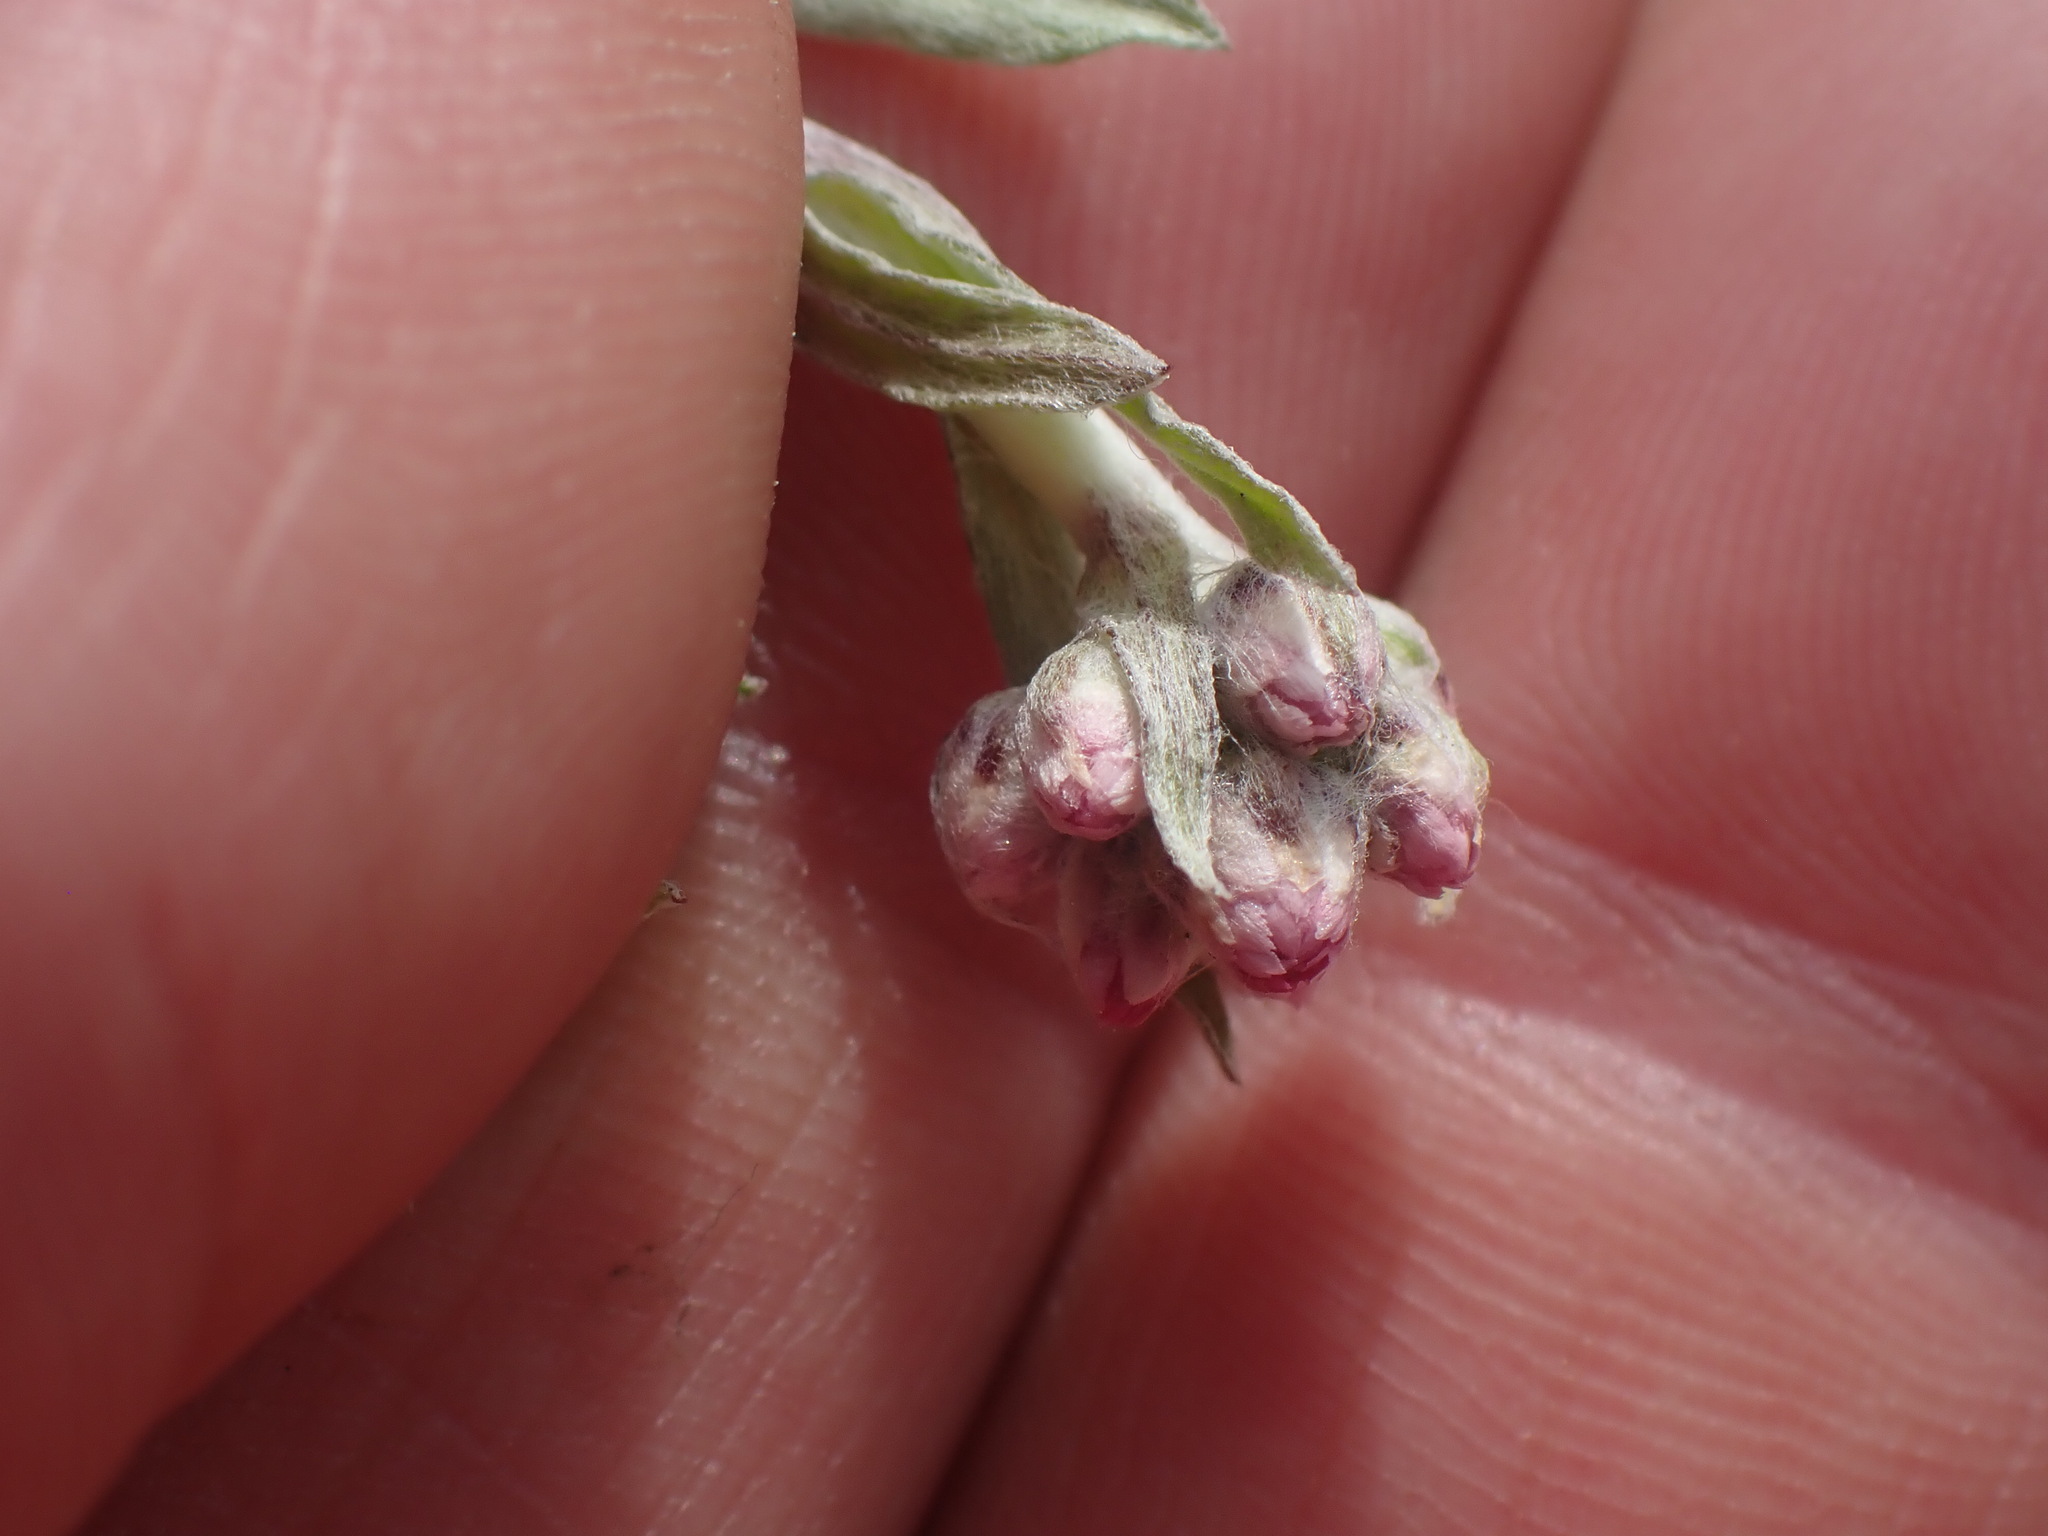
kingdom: Plantae
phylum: Tracheophyta
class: Magnoliopsida
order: Asterales
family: Asteraceae
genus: Antennaria
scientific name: Antennaria rosea
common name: Rosy pussytoes
